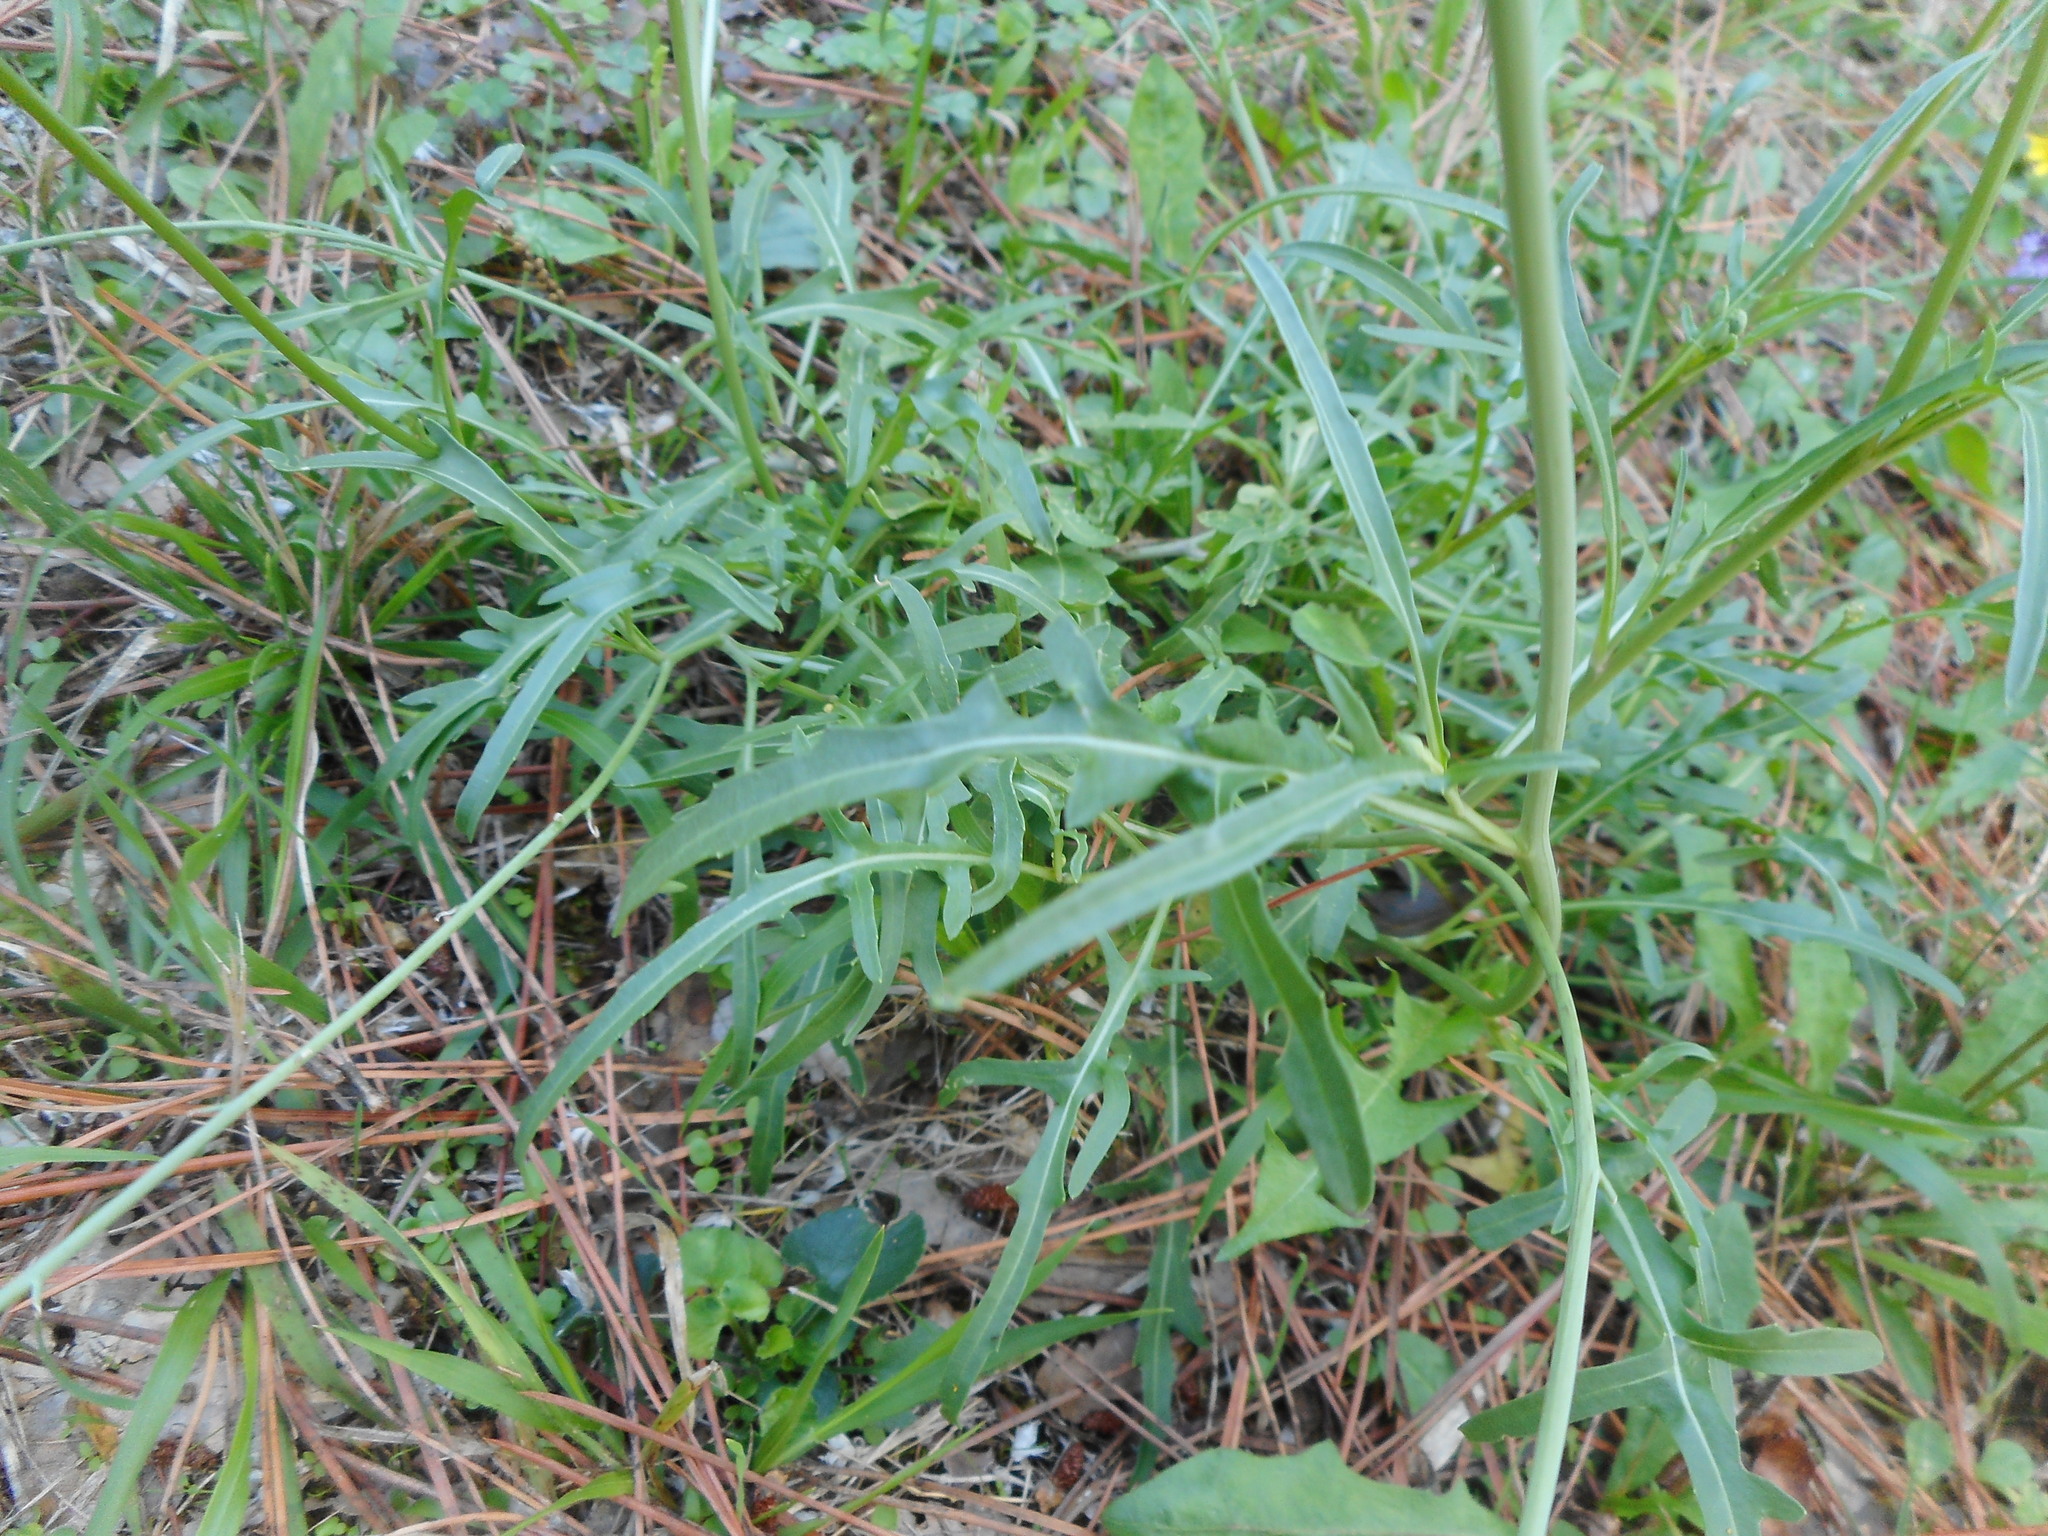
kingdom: Plantae
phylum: Tracheophyta
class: Magnoliopsida
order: Brassicales
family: Brassicaceae
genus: Diplotaxis
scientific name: Diplotaxis tenuifolia
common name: Perennial wall-rocket
